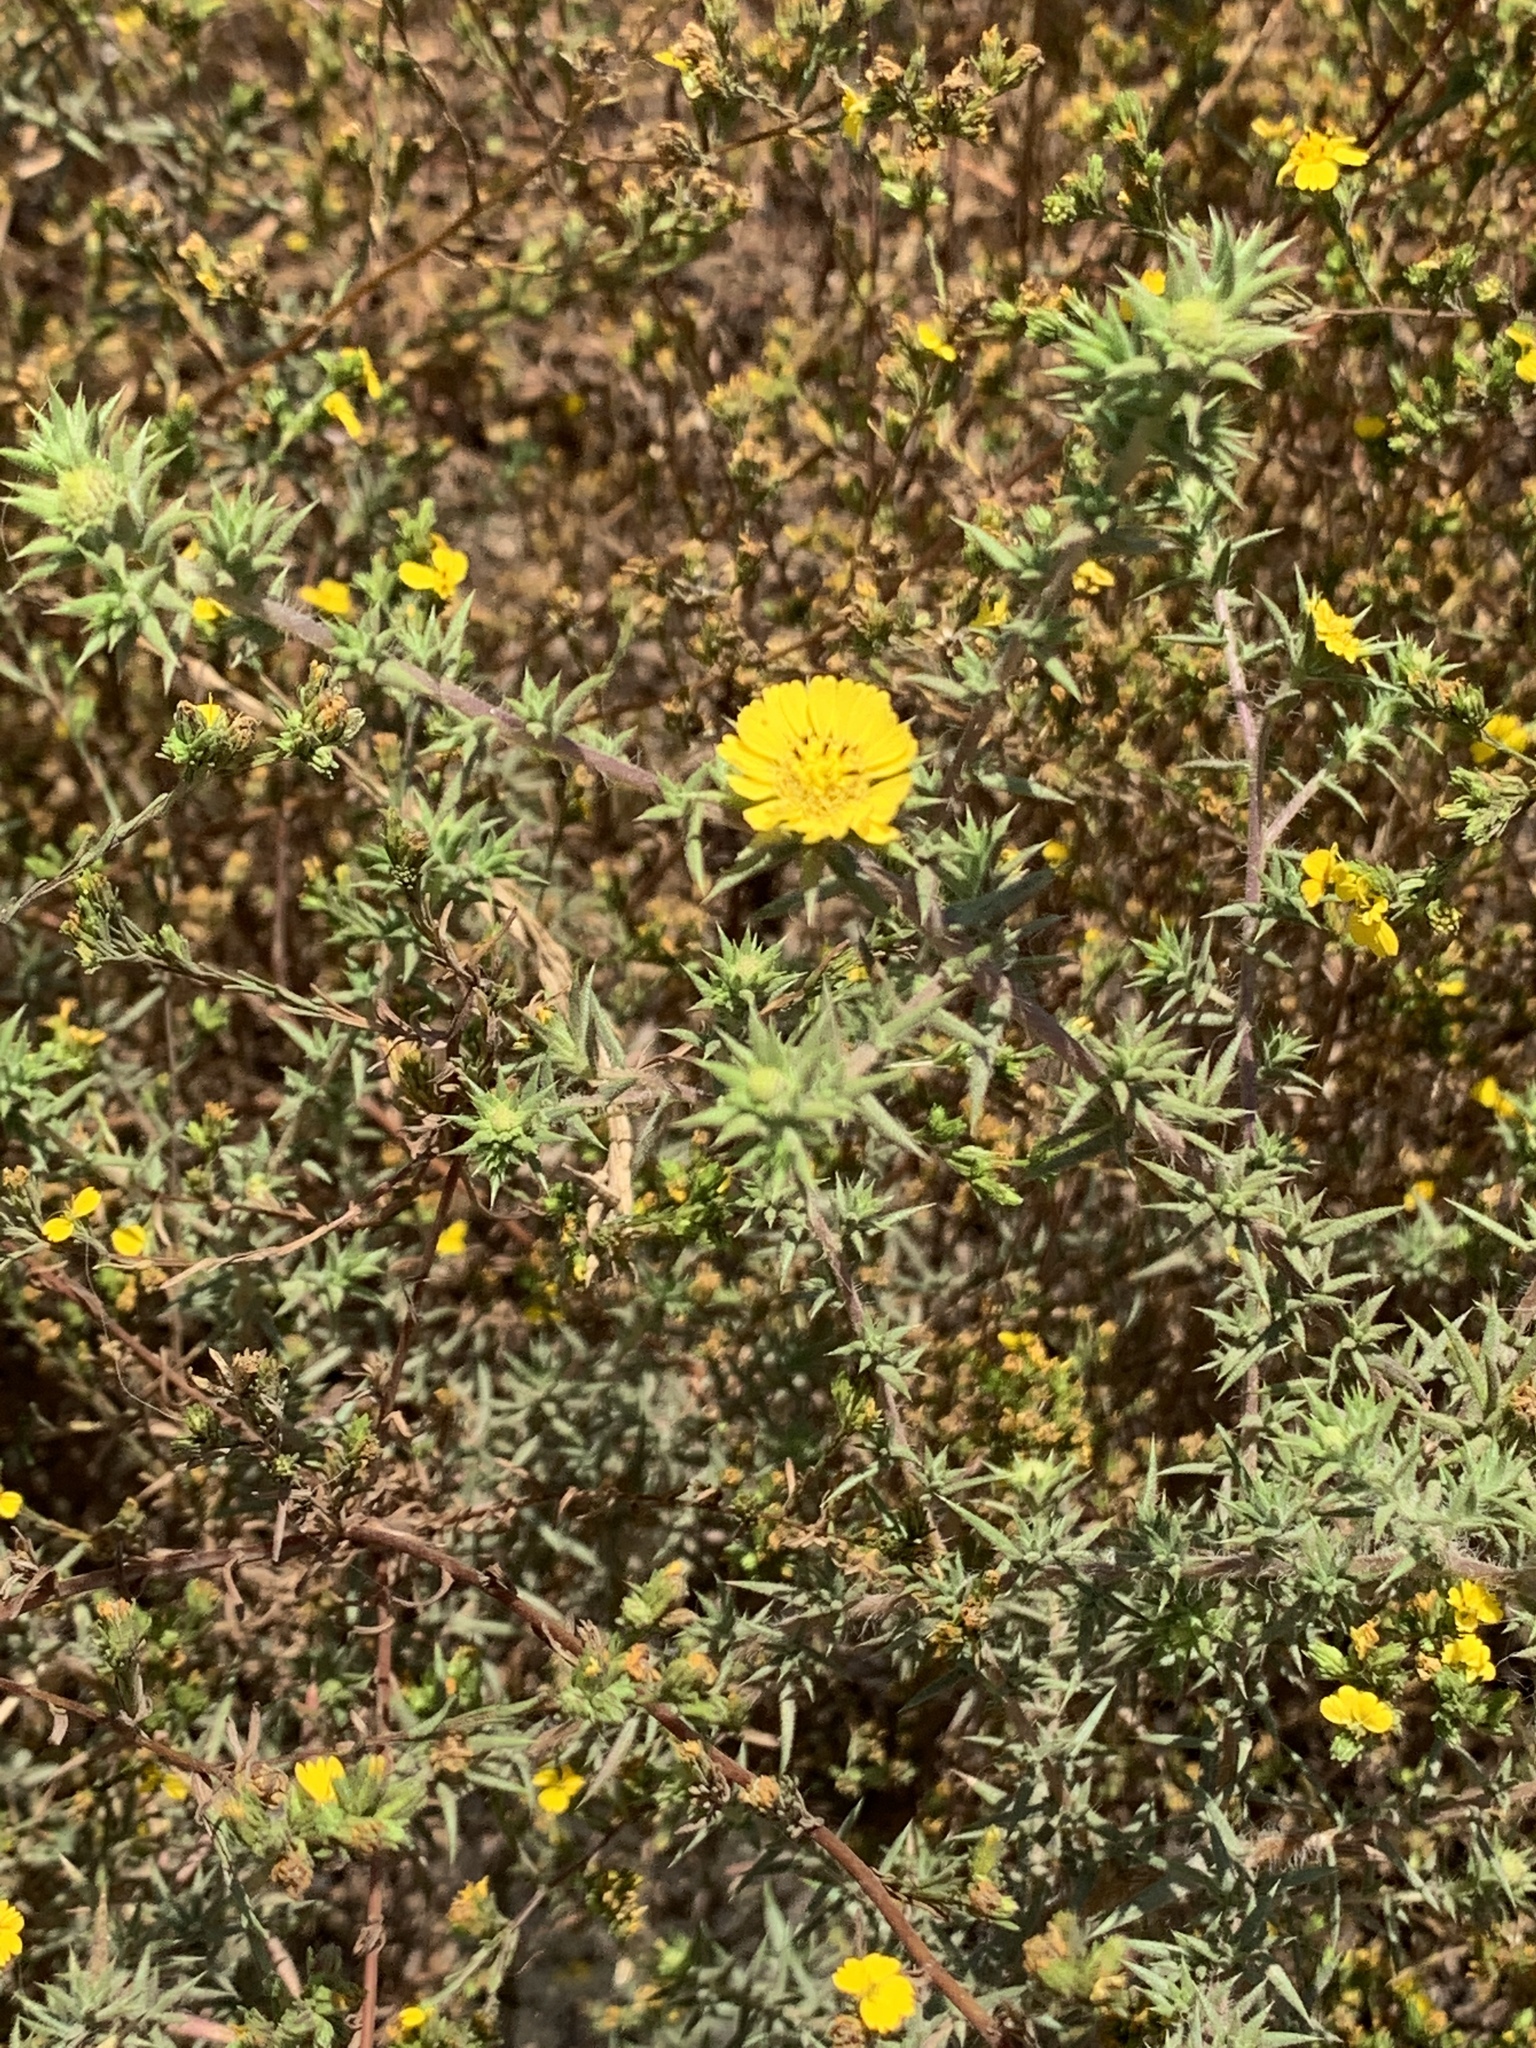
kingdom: Plantae
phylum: Tracheophyta
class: Magnoliopsida
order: Asterales
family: Asteraceae
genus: Centromadia
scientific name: Centromadia parryi
